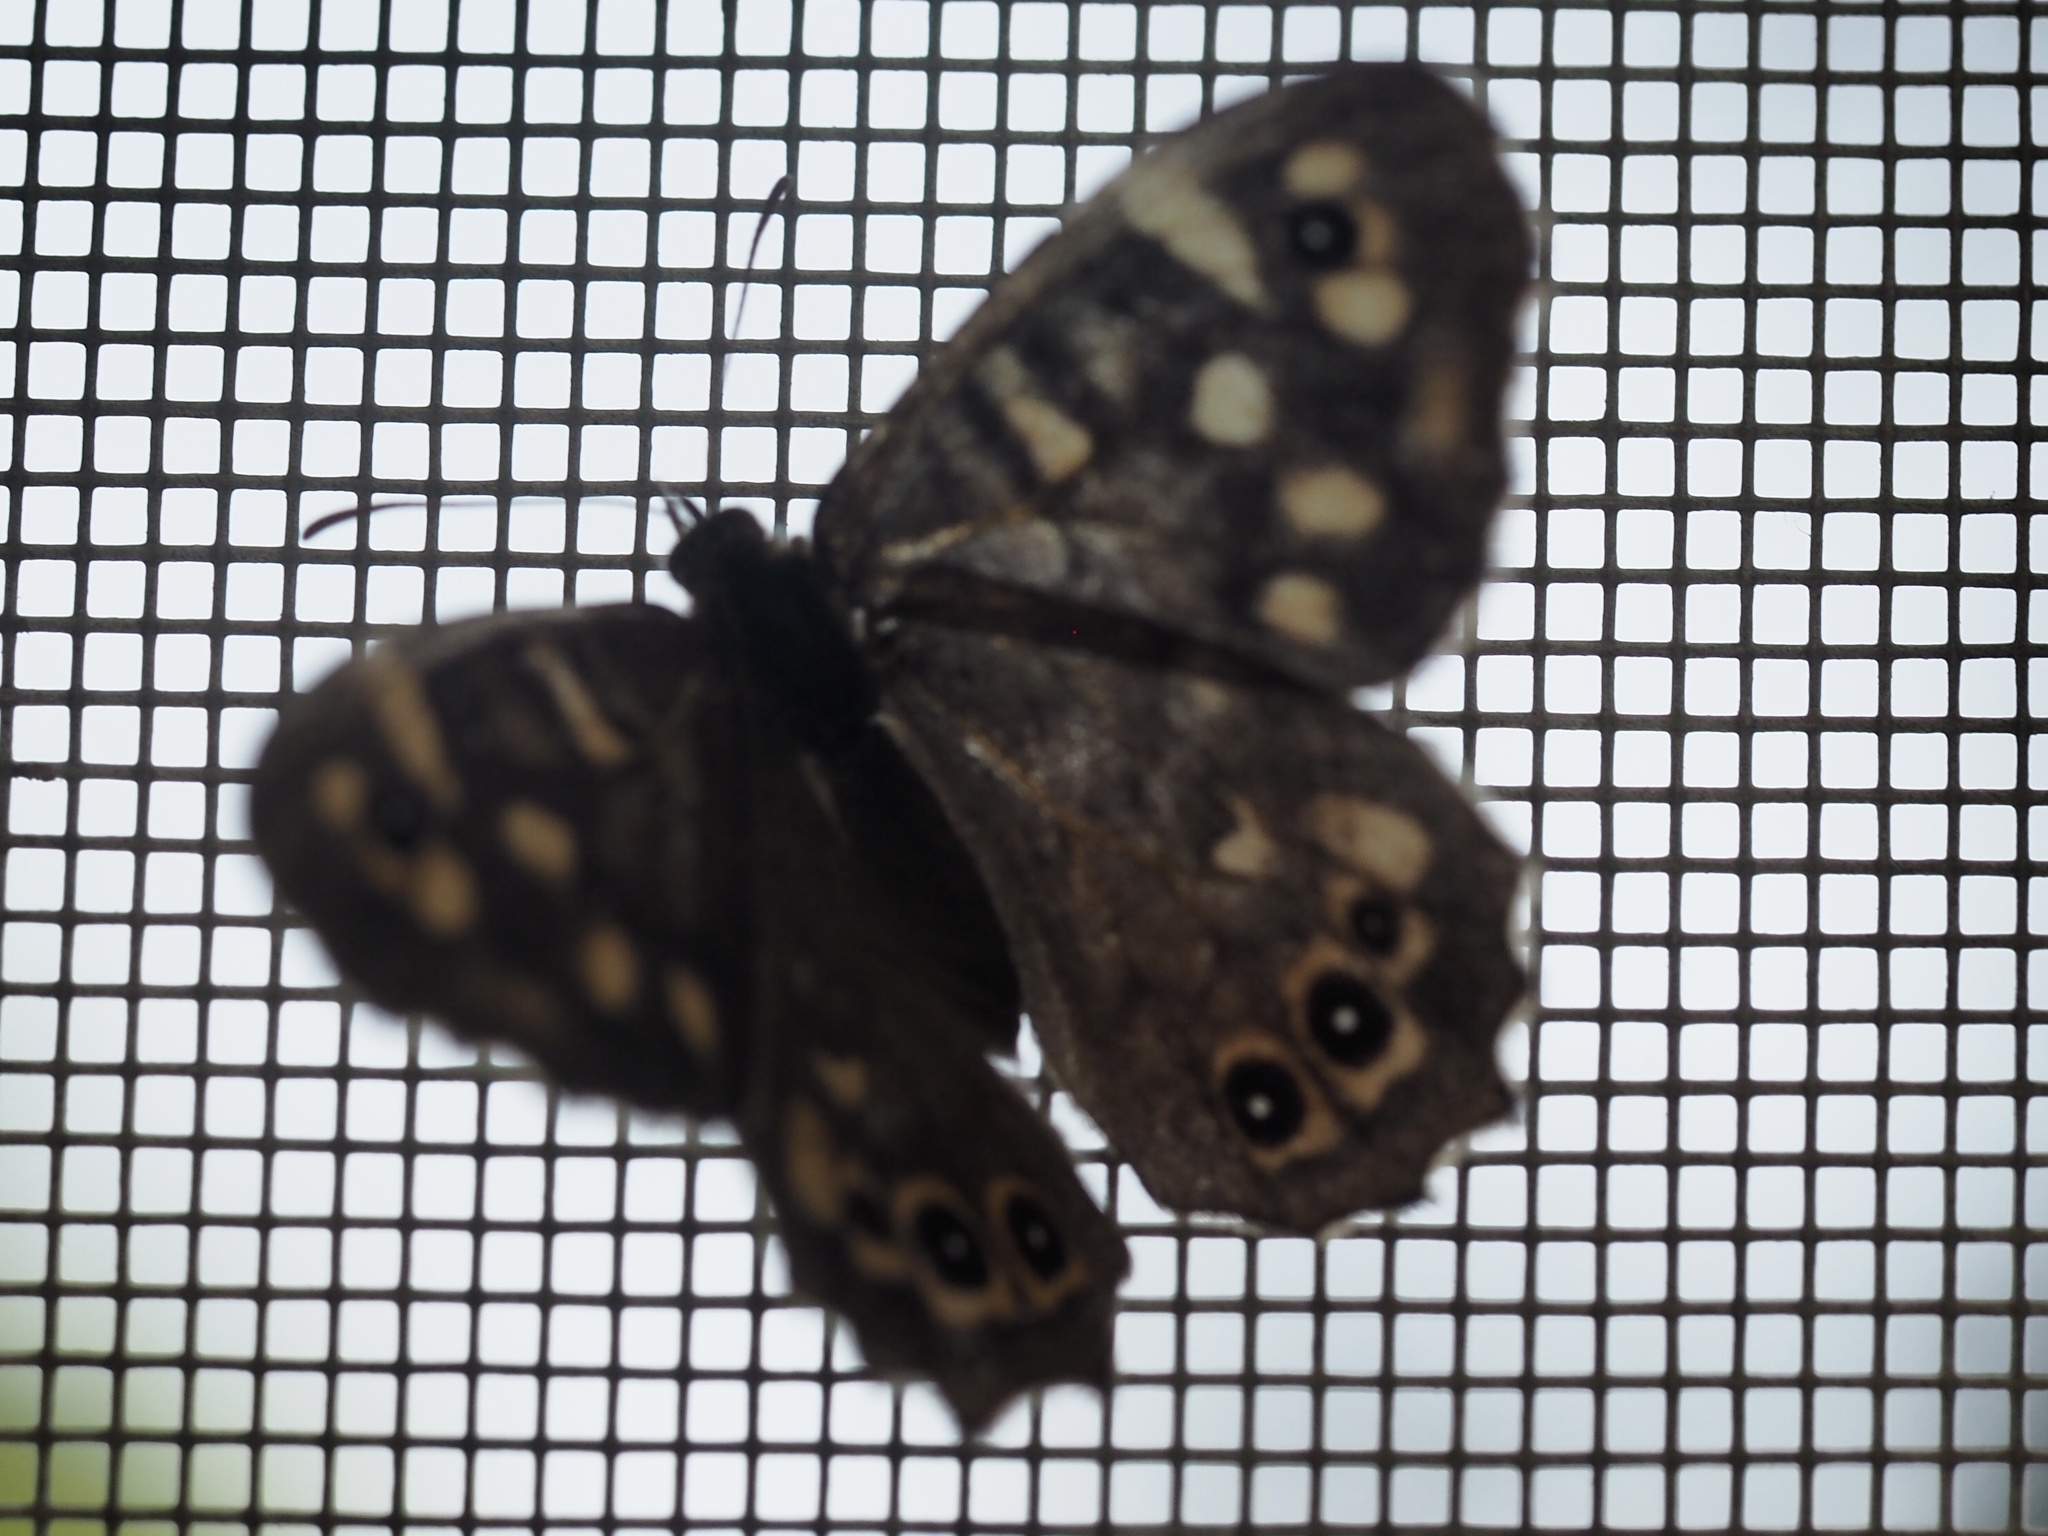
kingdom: Animalia
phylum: Arthropoda
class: Insecta
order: Lepidoptera
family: Nymphalidae
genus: Pararge
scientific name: Pararge aegeria
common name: Speckled wood
